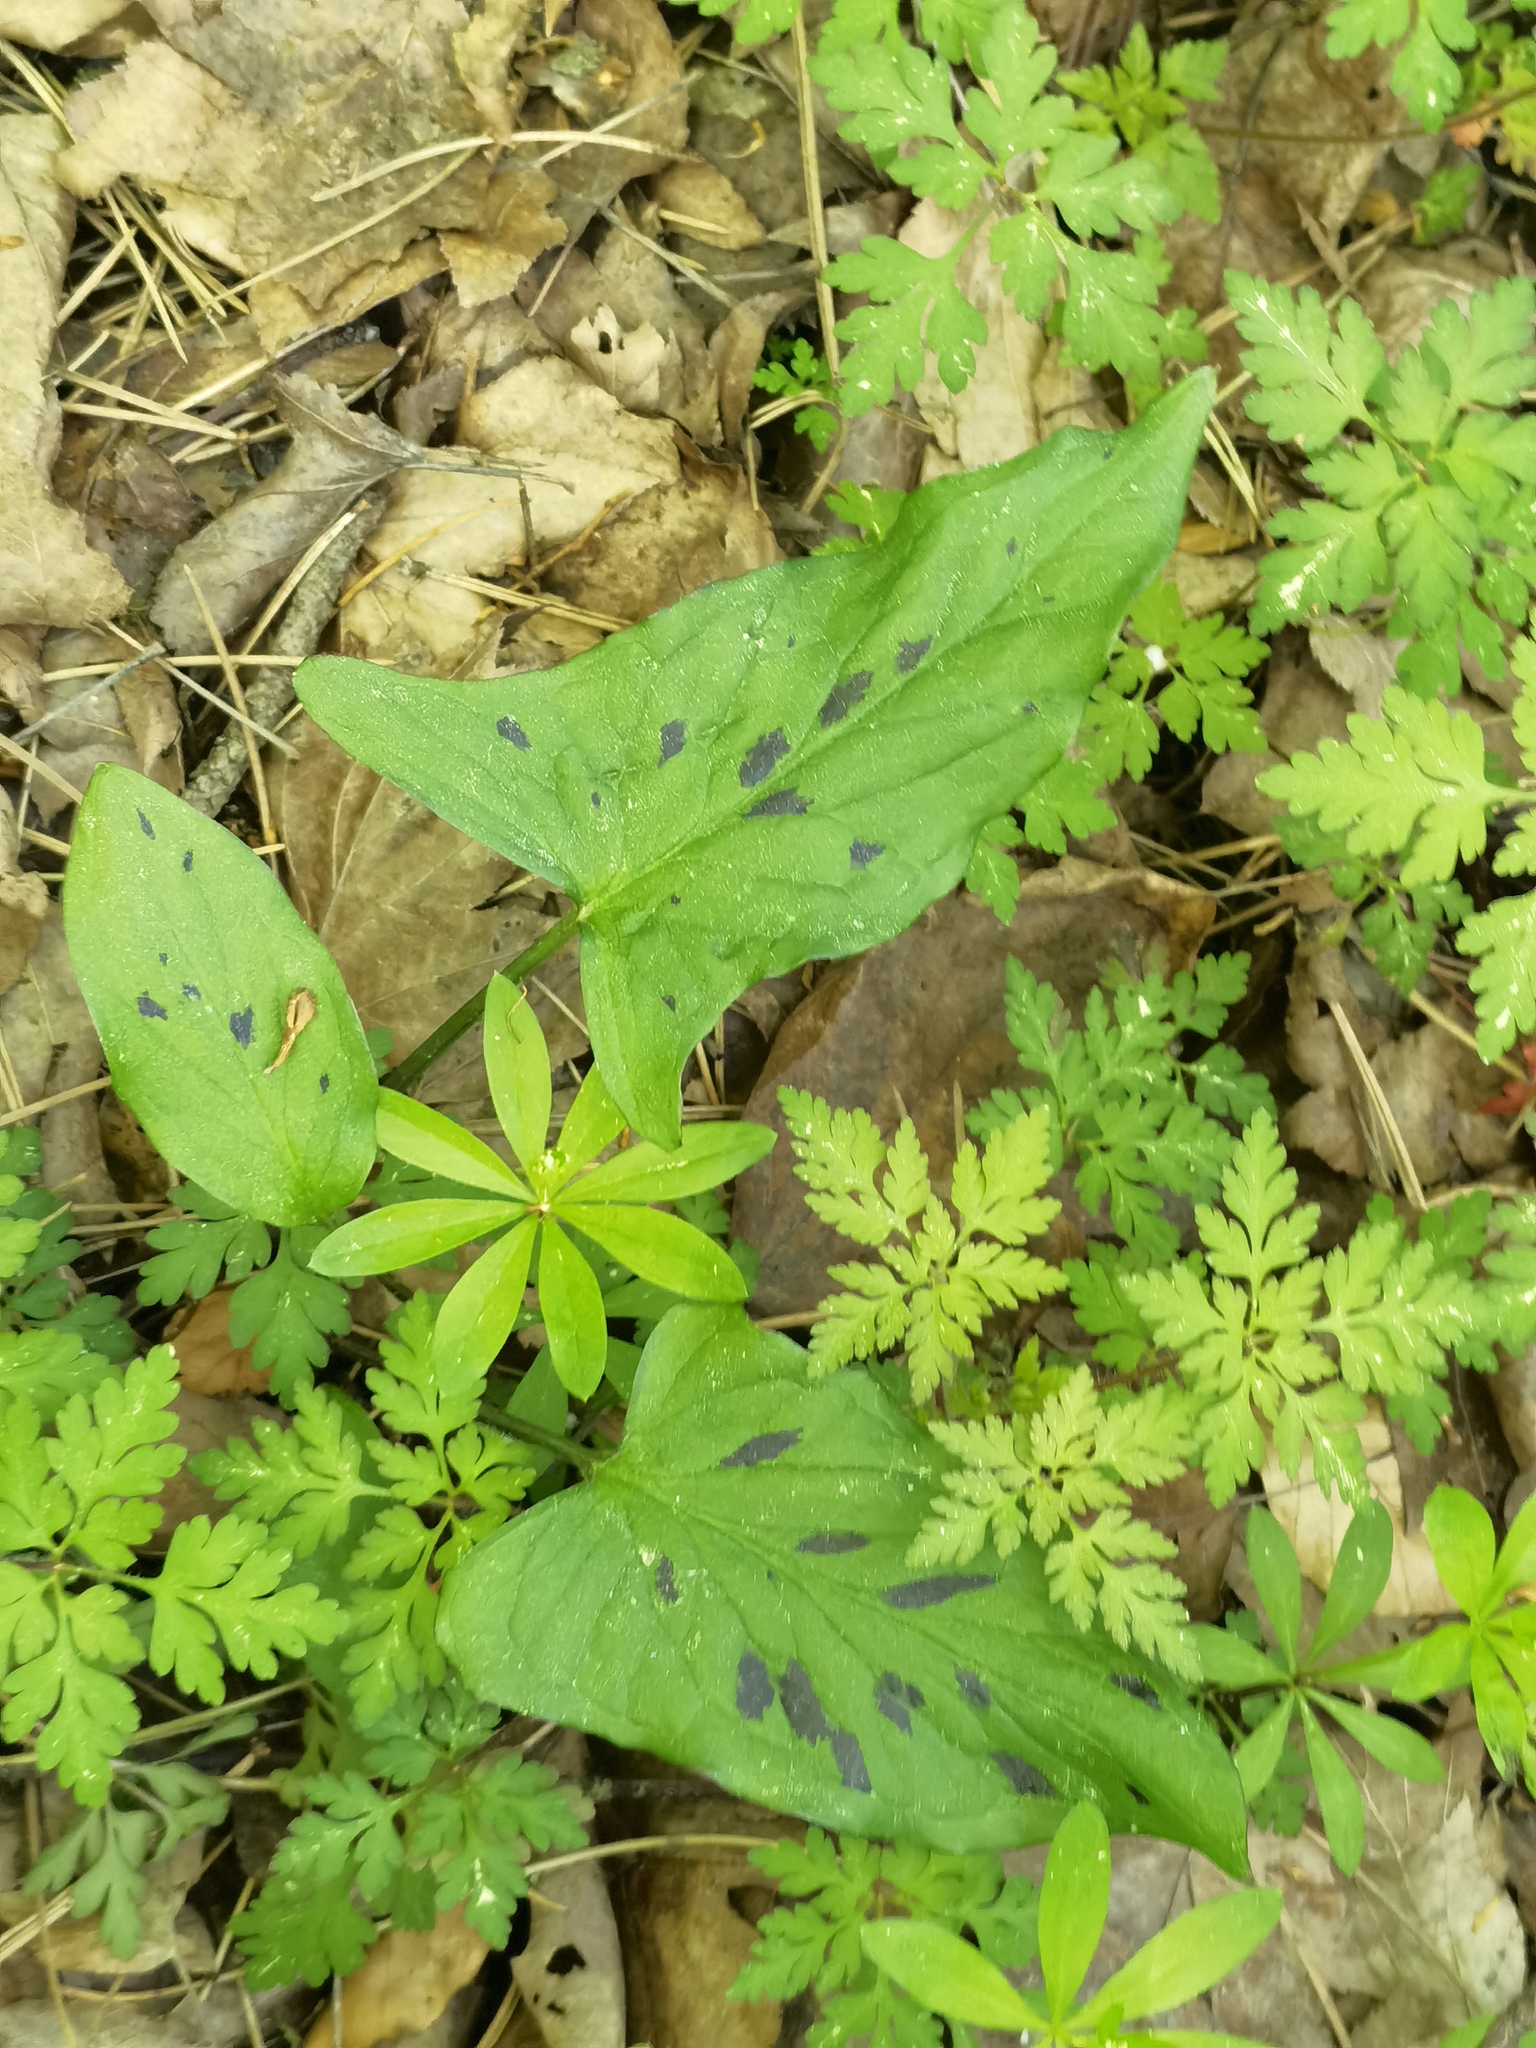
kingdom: Plantae
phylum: Tracheophyta
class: Liliopsida
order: Alismatales
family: Araceae
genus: Arum
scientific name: Arum maculatum
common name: Lords-and-ladies
